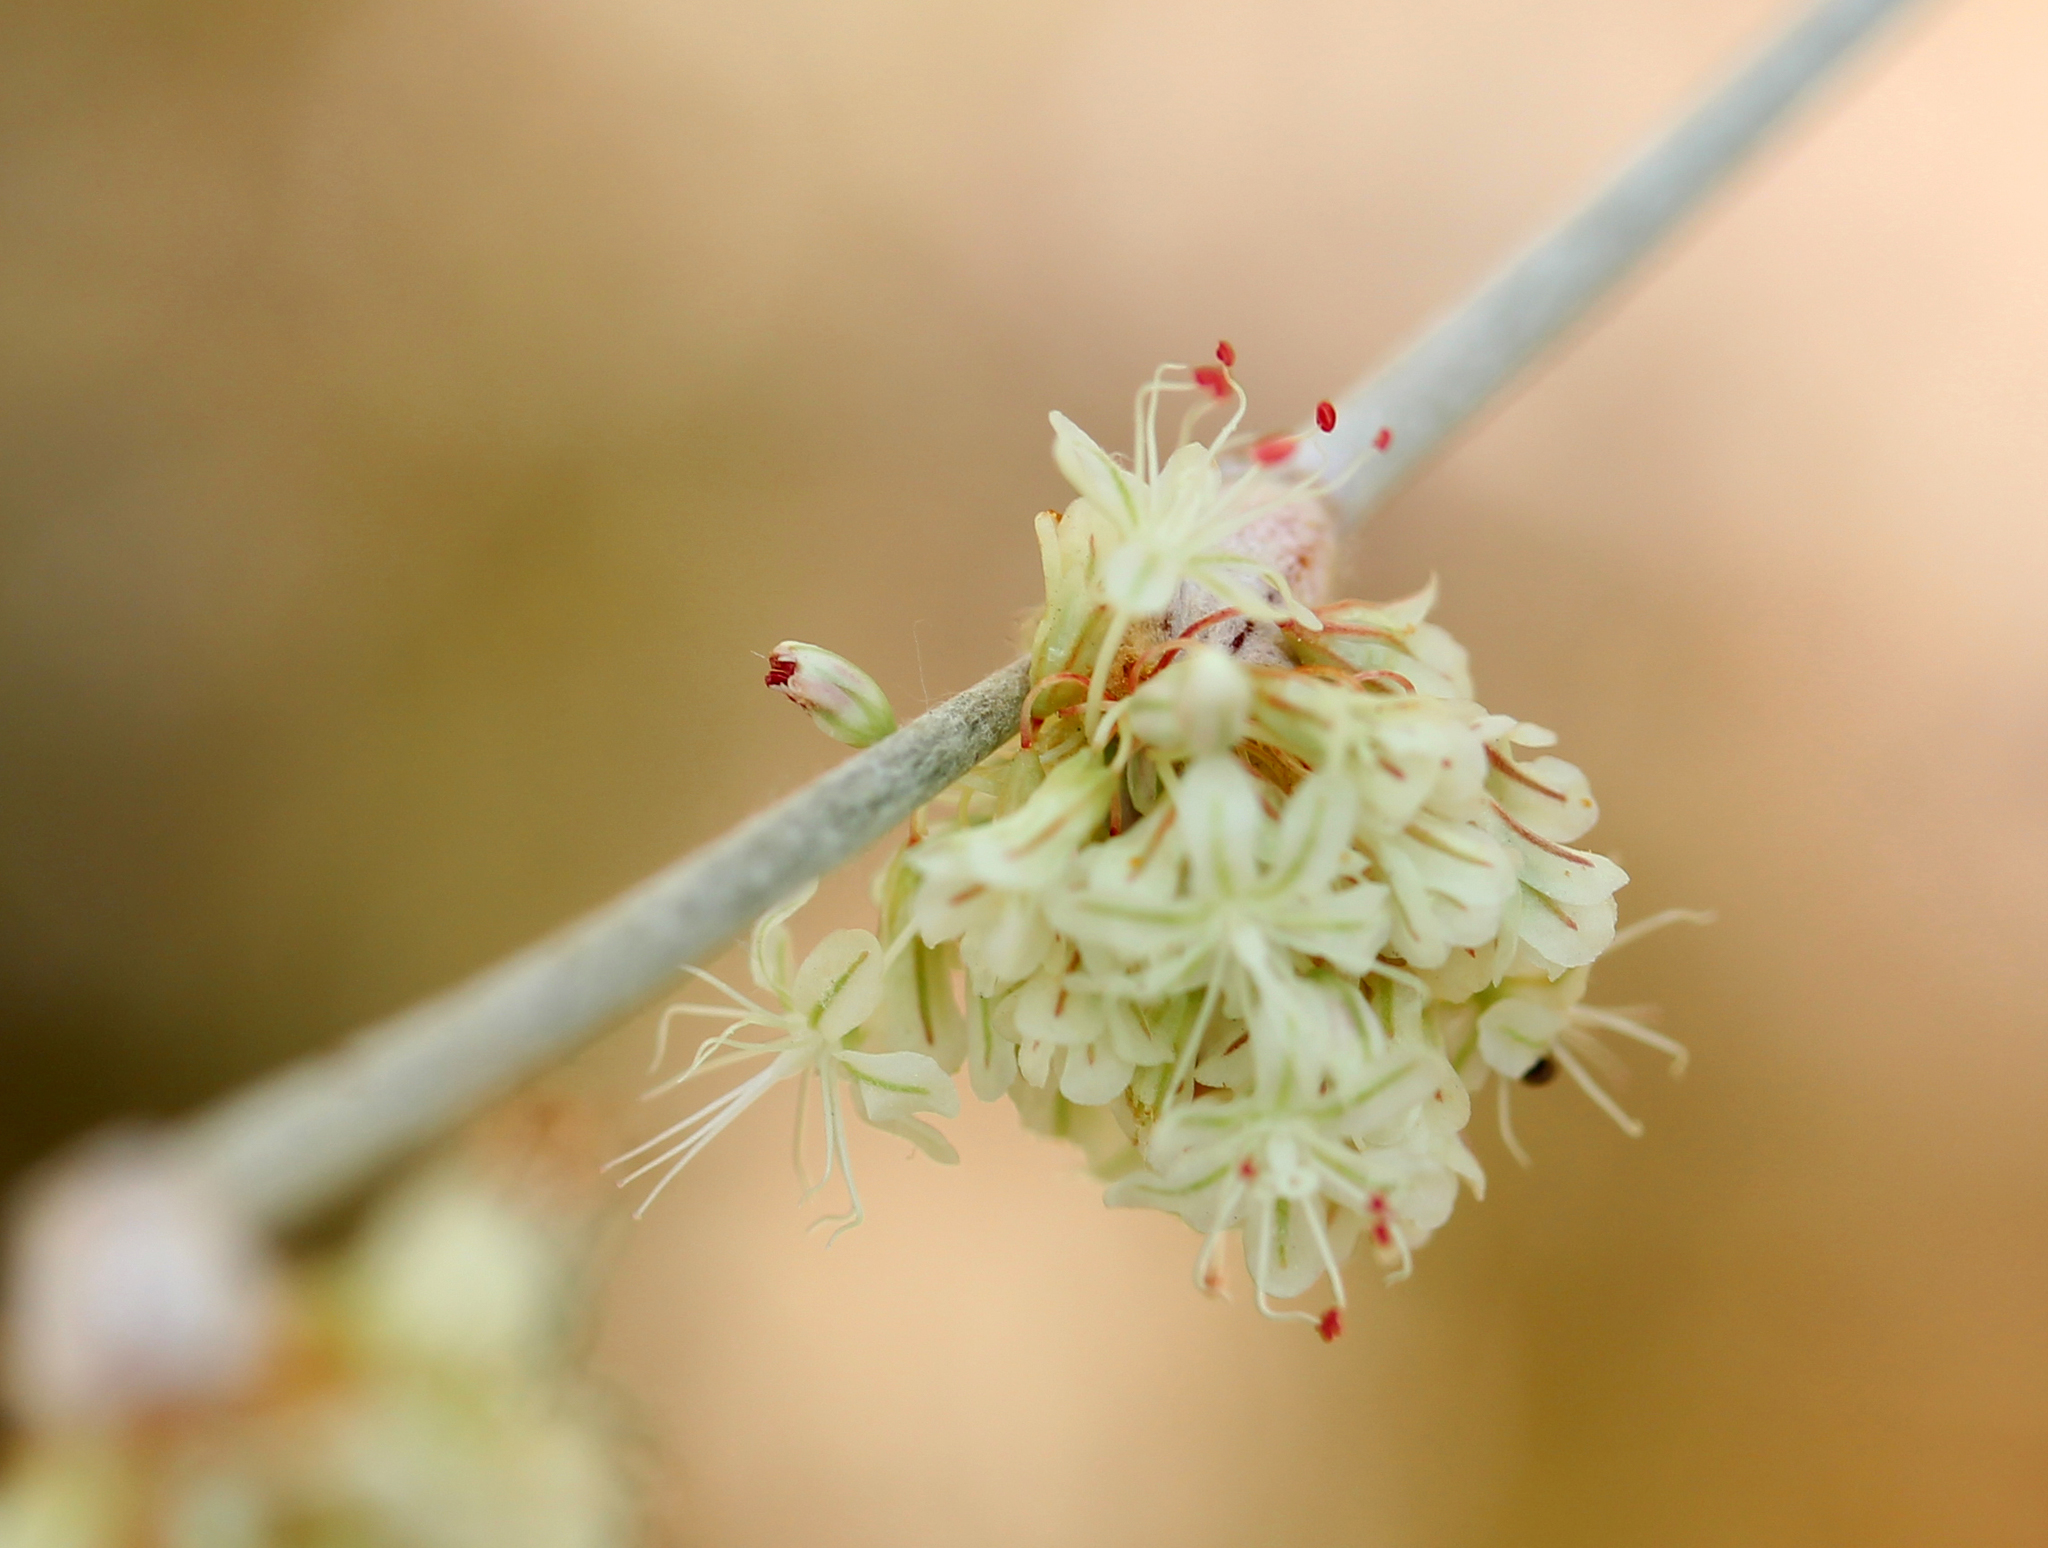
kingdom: Plantae
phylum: Tracheophyta
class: Magnoliopsida
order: Caryophyllales
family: Polygonaceae
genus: Eriogonum
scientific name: Eriogonum elongatum
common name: Long-stem wild buckwheat
